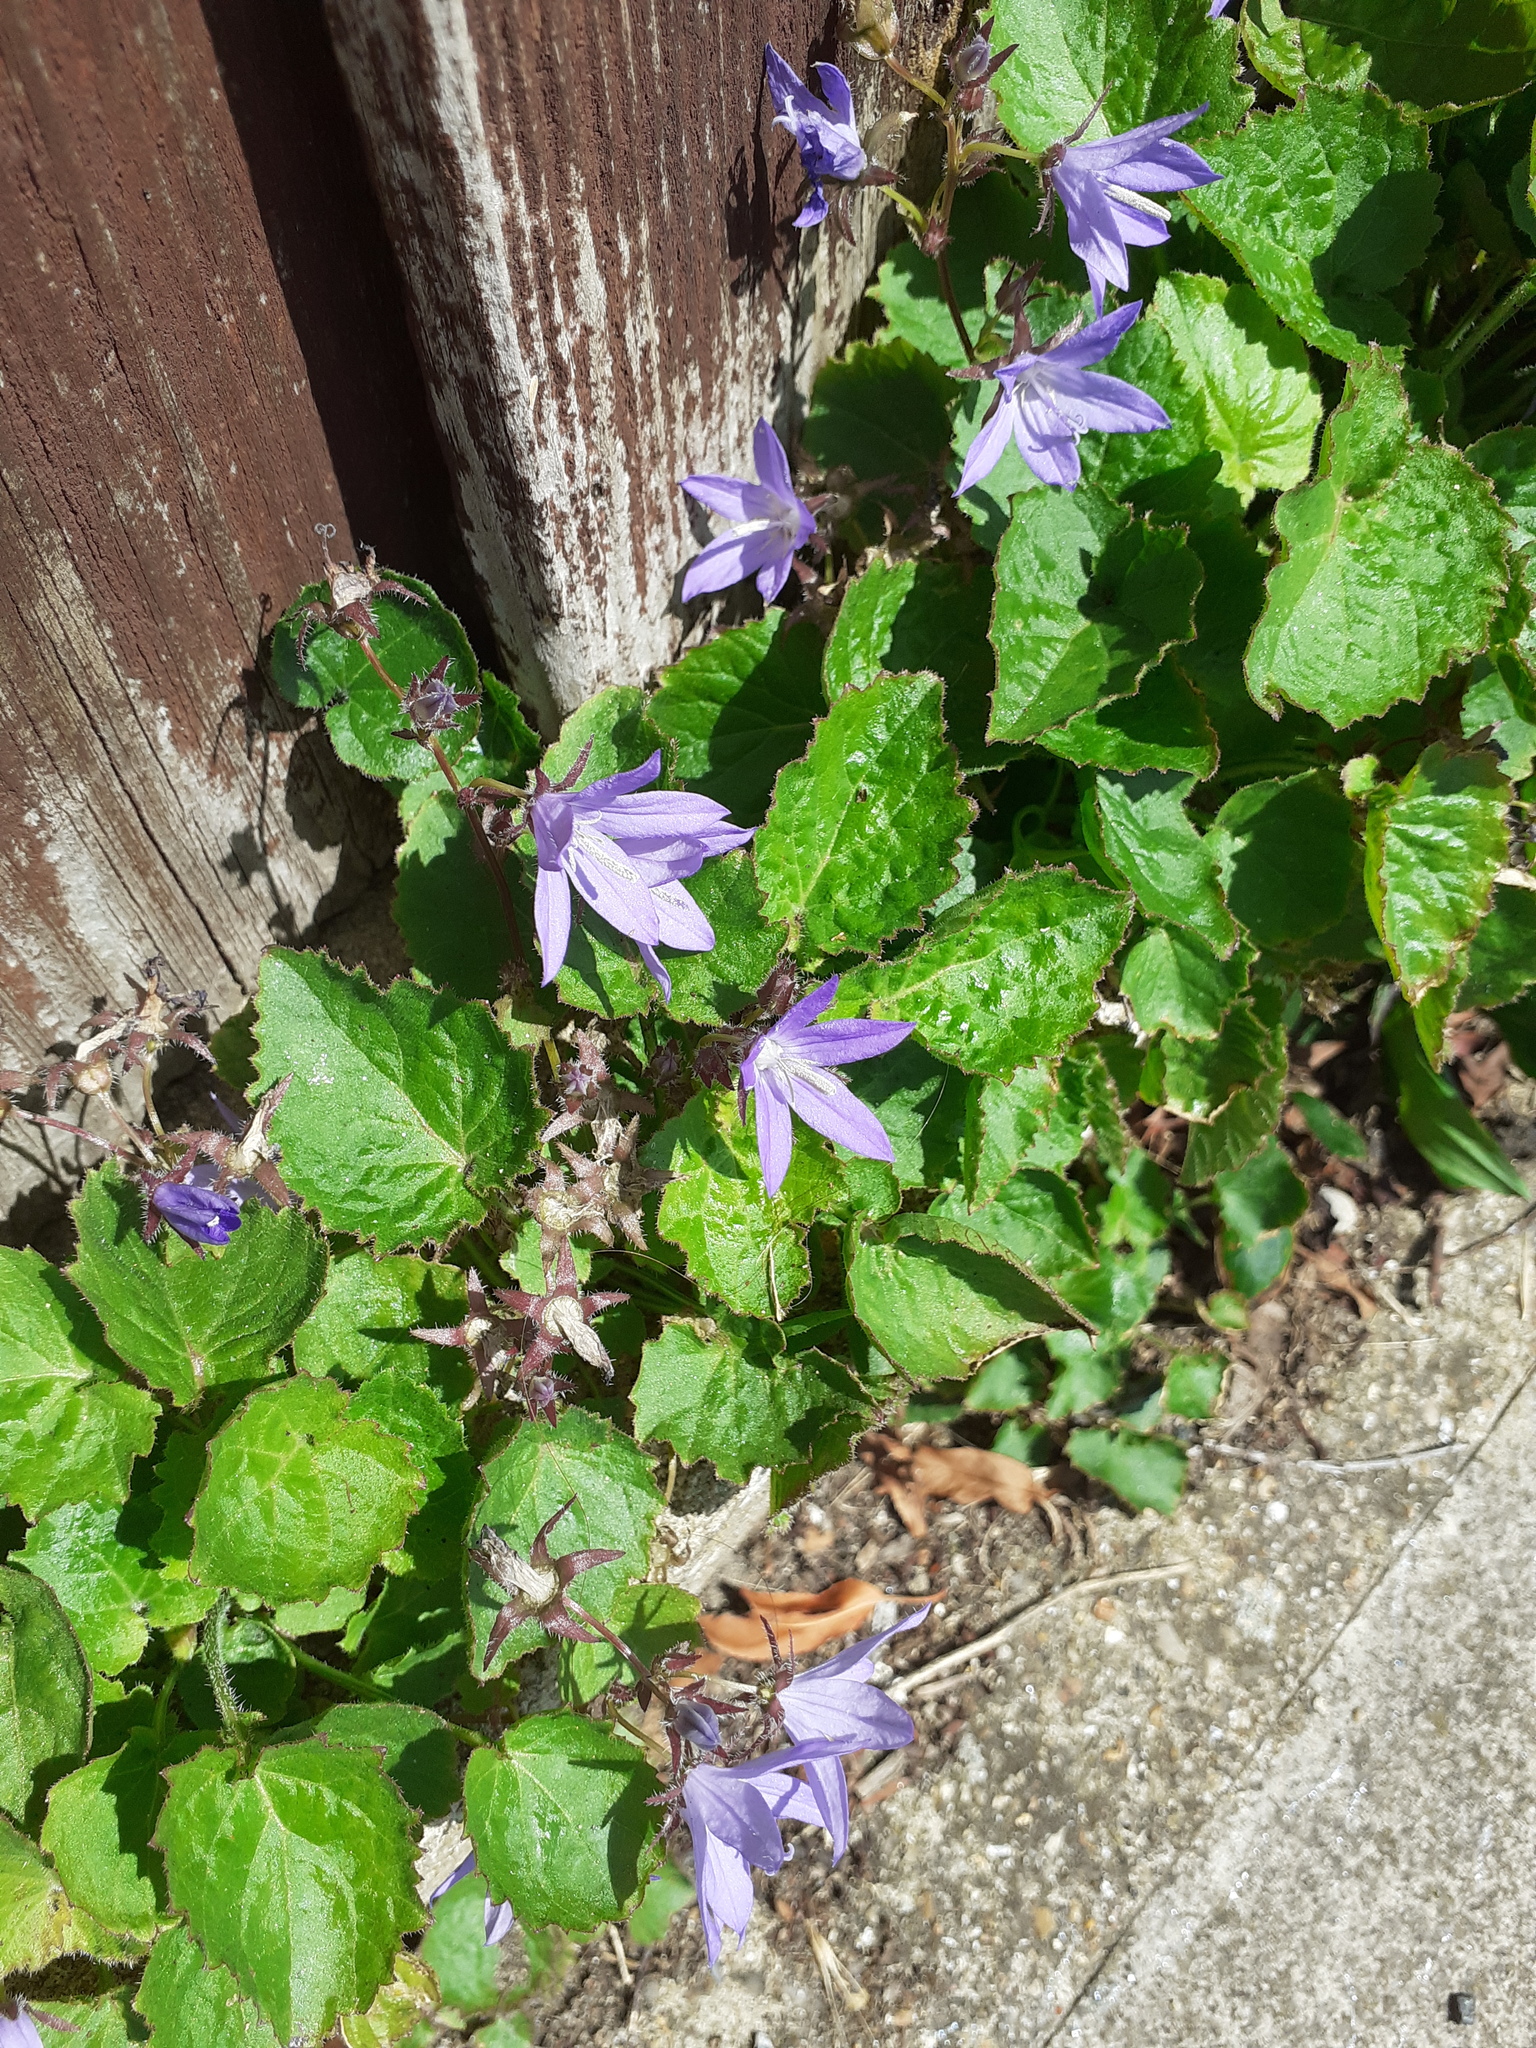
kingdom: Plantae
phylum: Tracheophyta
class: Magnoliopsida
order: Asterales
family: Campanulaceae
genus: Campanula
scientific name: Campanula poscharskyana
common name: Trailing bellflower
